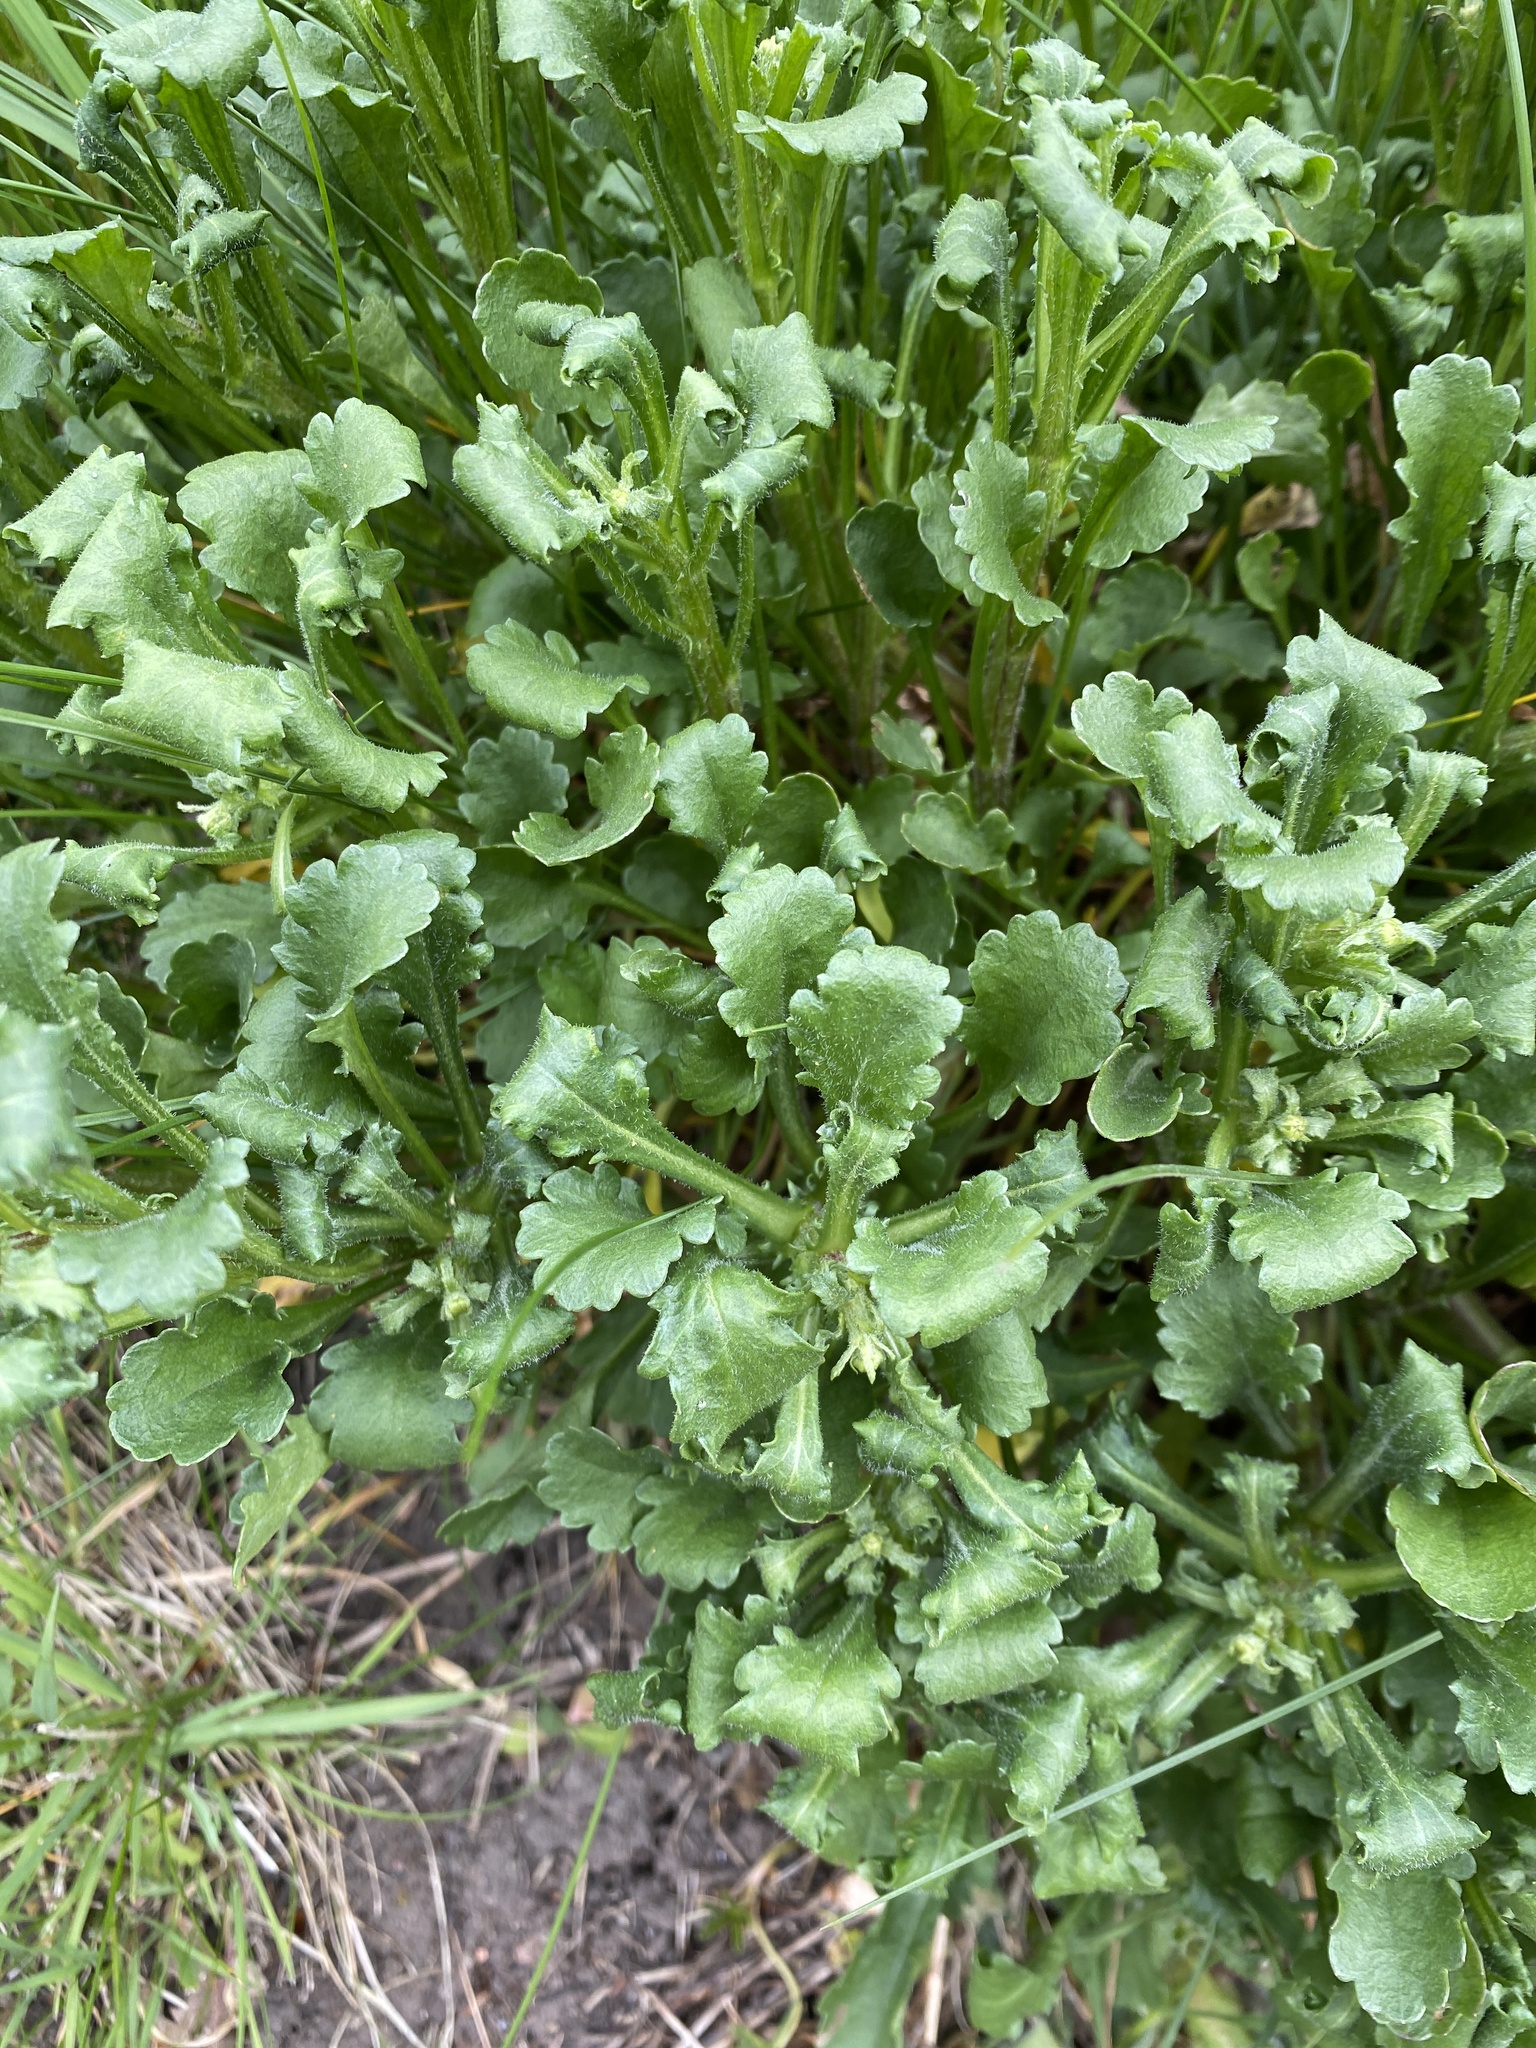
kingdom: Plantae
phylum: Tracheophyta
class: Magnoliopsida
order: Asterales
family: Asteraceae
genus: Leucanthemum
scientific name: Leucanthemum vulgare
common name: Oxeye daisy
